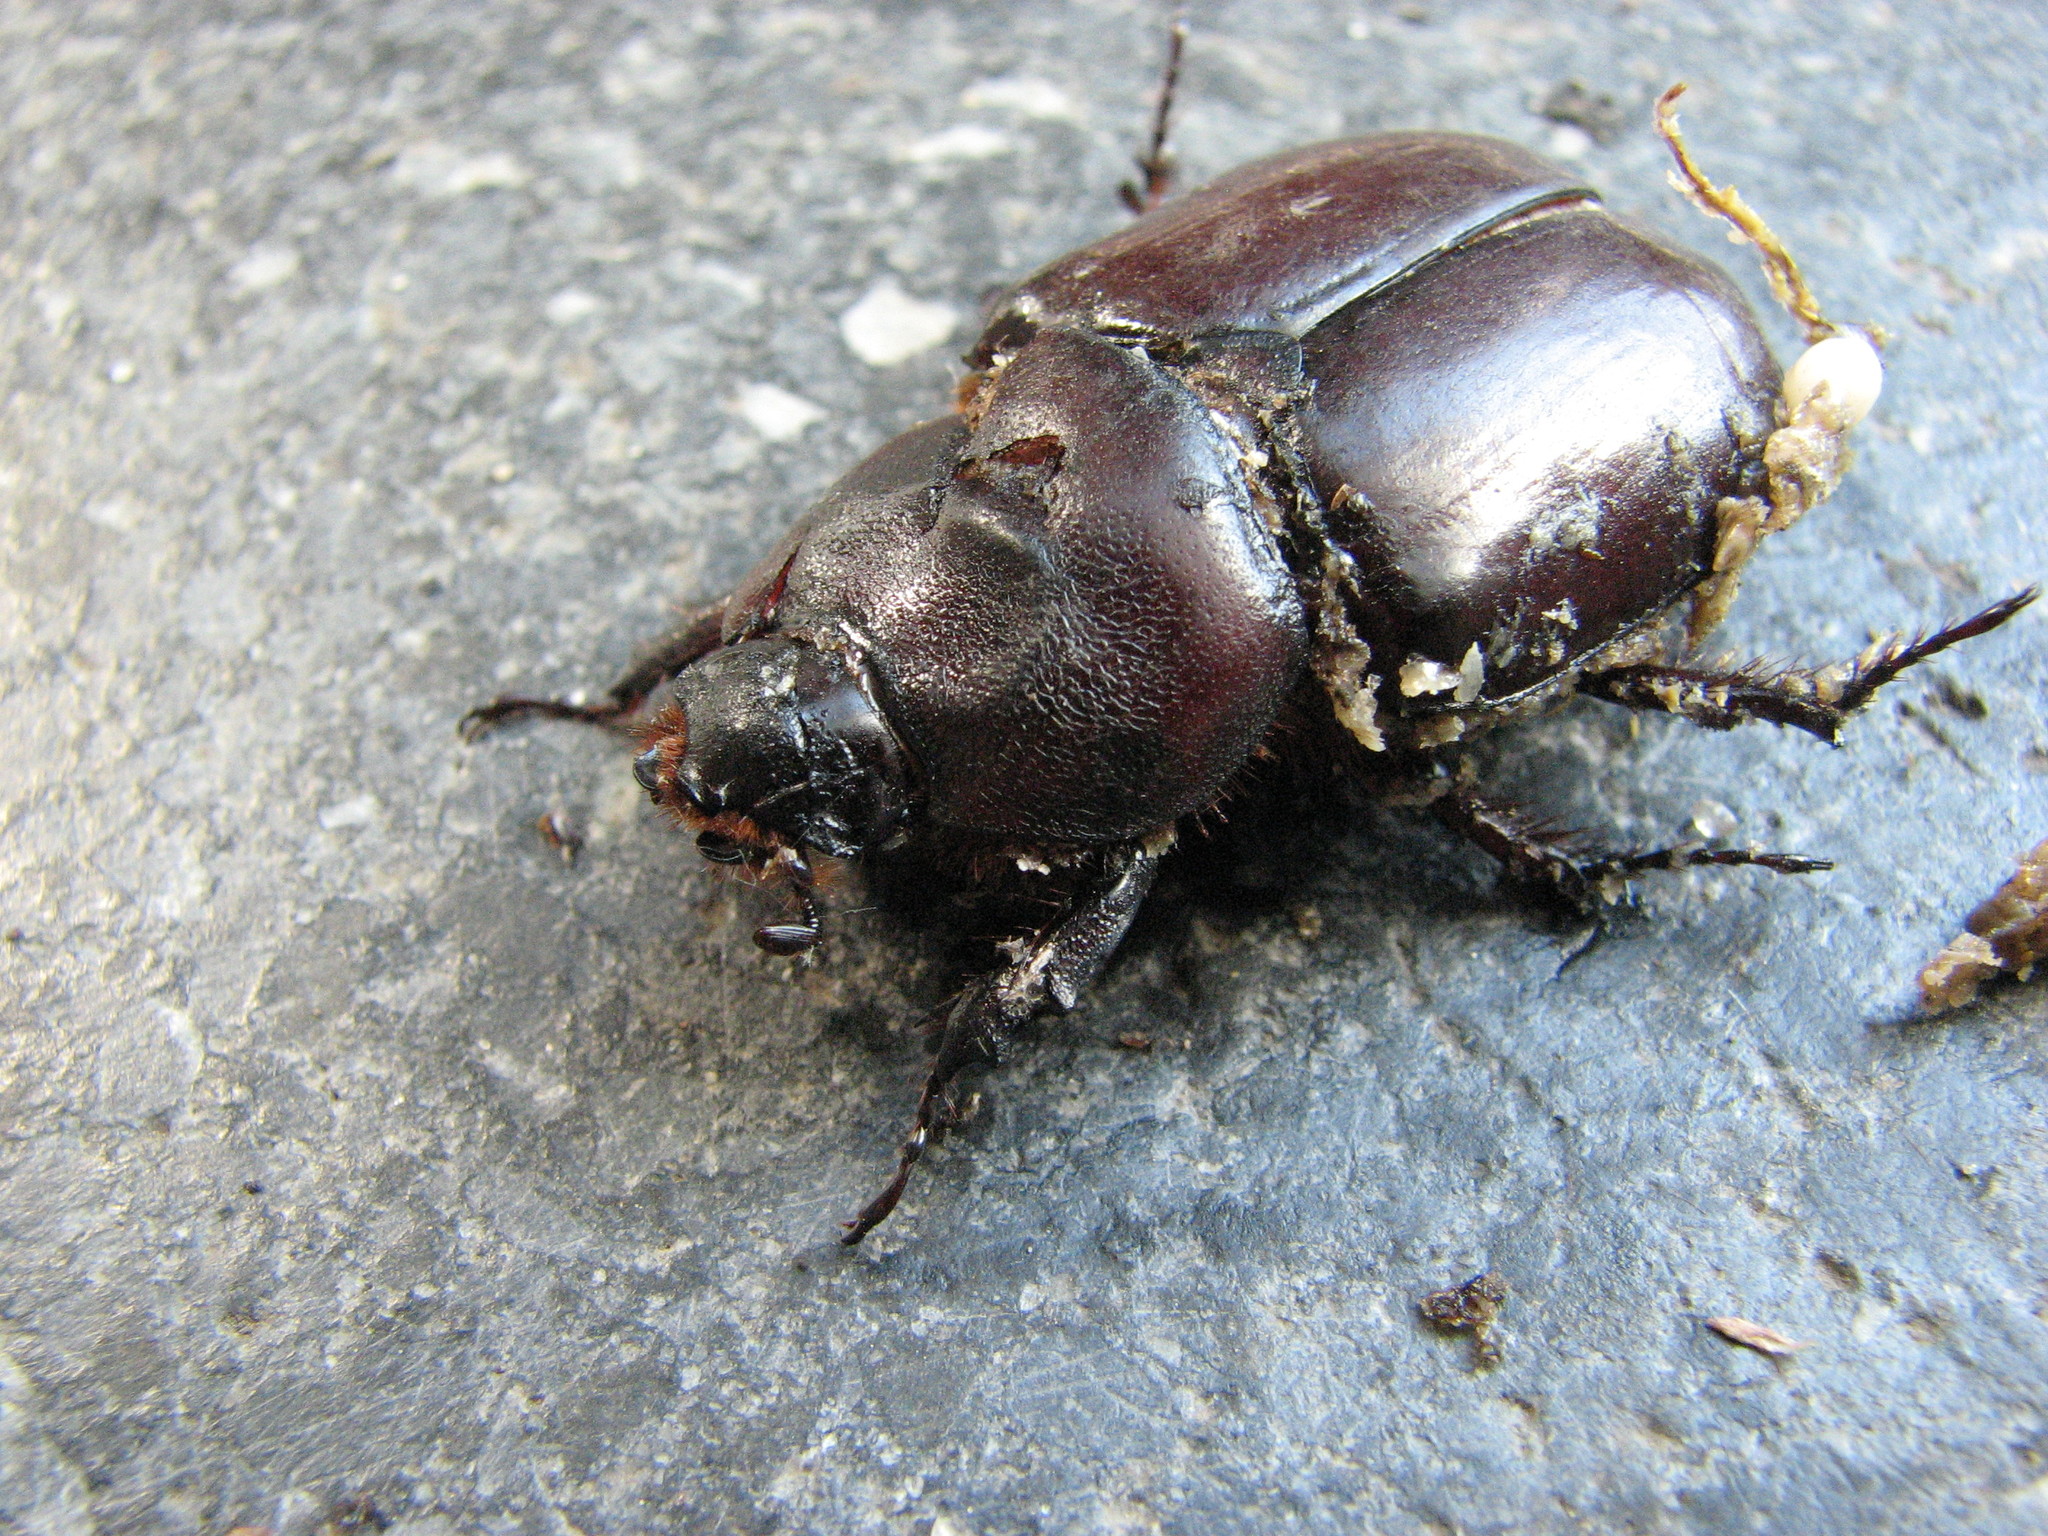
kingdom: Animalia
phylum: Arthropoda
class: Insecta
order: Coleoptera
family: Scarabaeidae
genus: Oryctes
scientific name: Oryctes nasicornis
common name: European rhinoceros beetle
